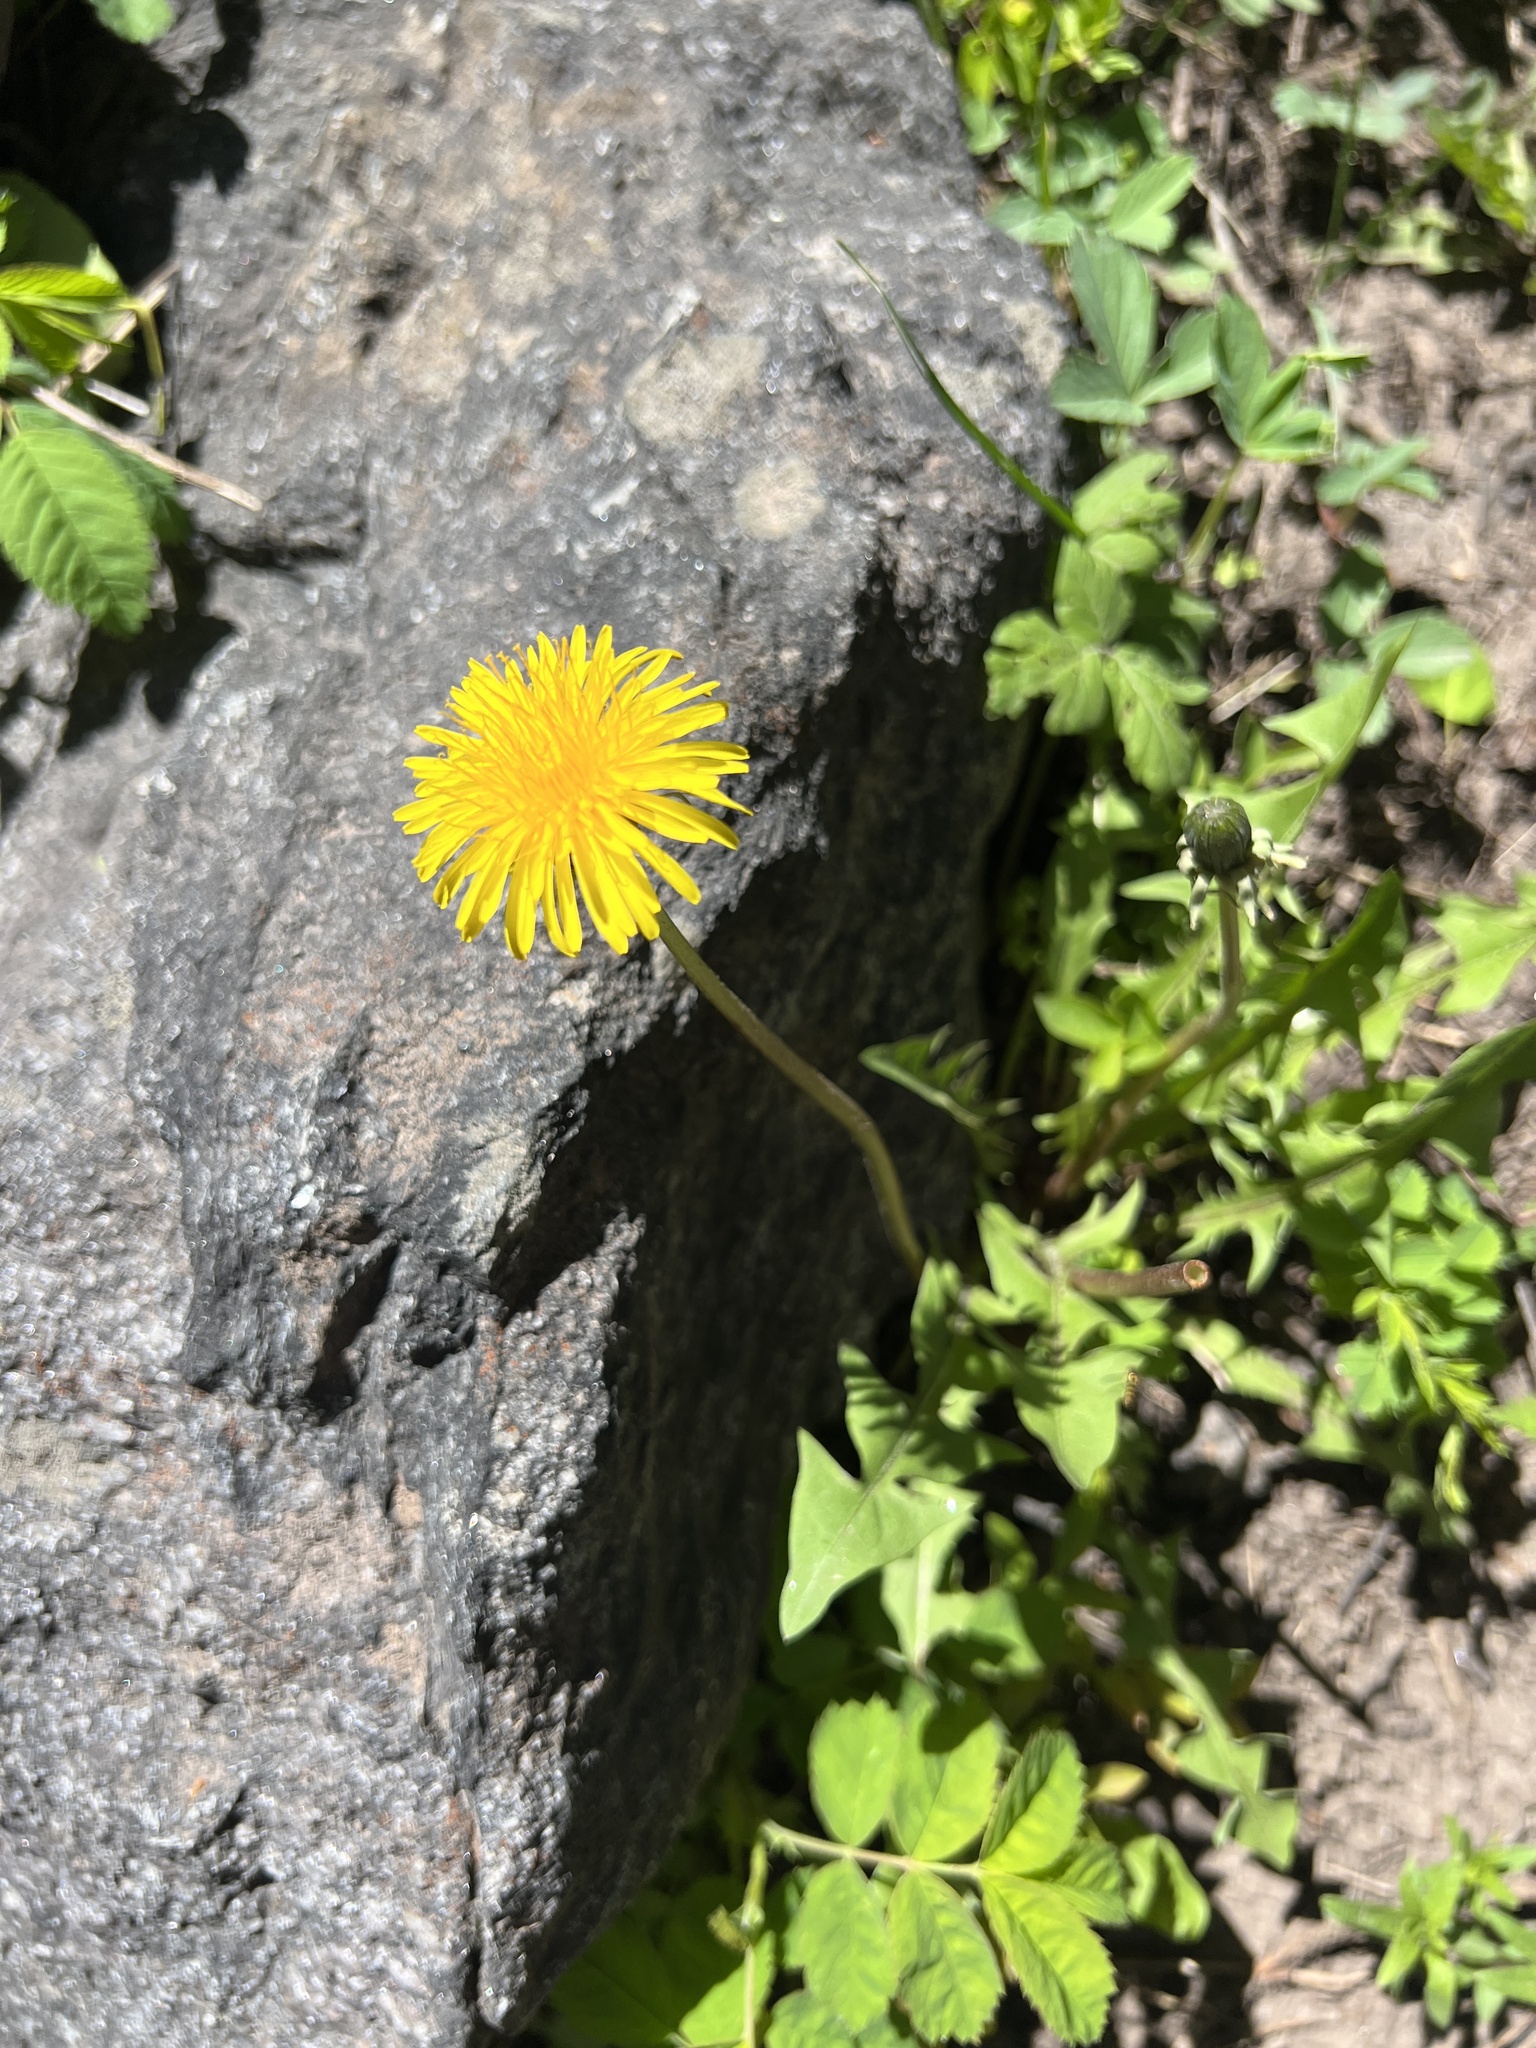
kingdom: Plantae
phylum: Tracheophyta
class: Magnoliopsida
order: Asterales
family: Asteraceae
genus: Taraxacum
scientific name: Taraxacum officinale
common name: Common dandelion
